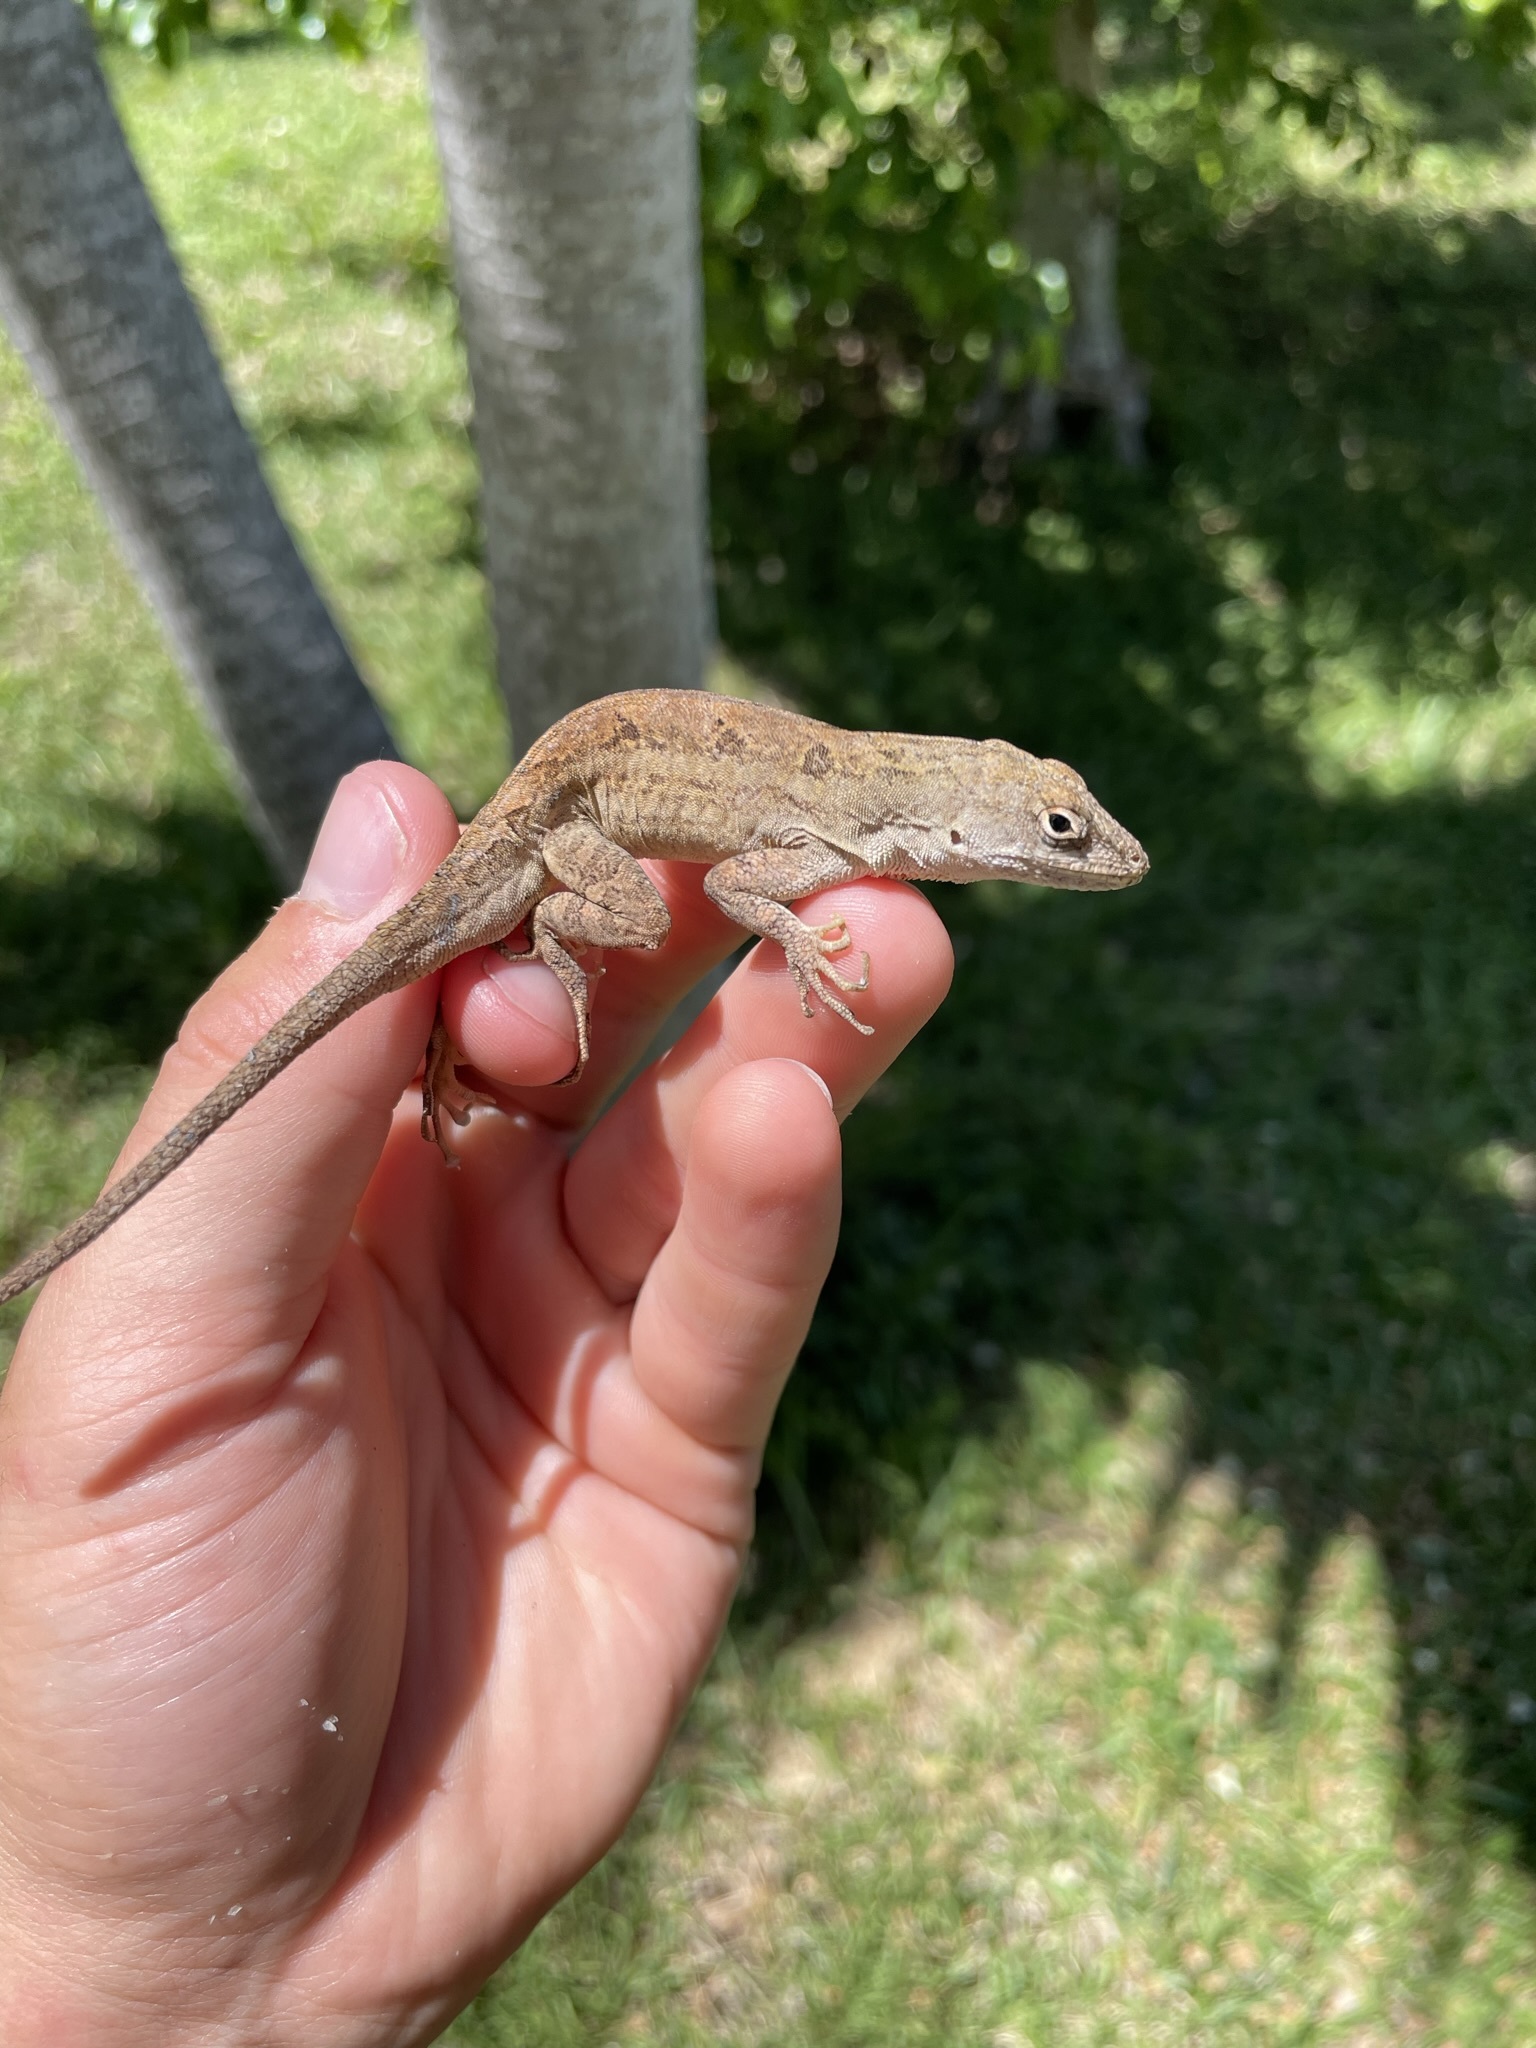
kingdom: Animalia
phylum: Chordata
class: Squamata
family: Dactyloidae
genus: Anolis
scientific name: Anolis sagrei
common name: Brown anole
